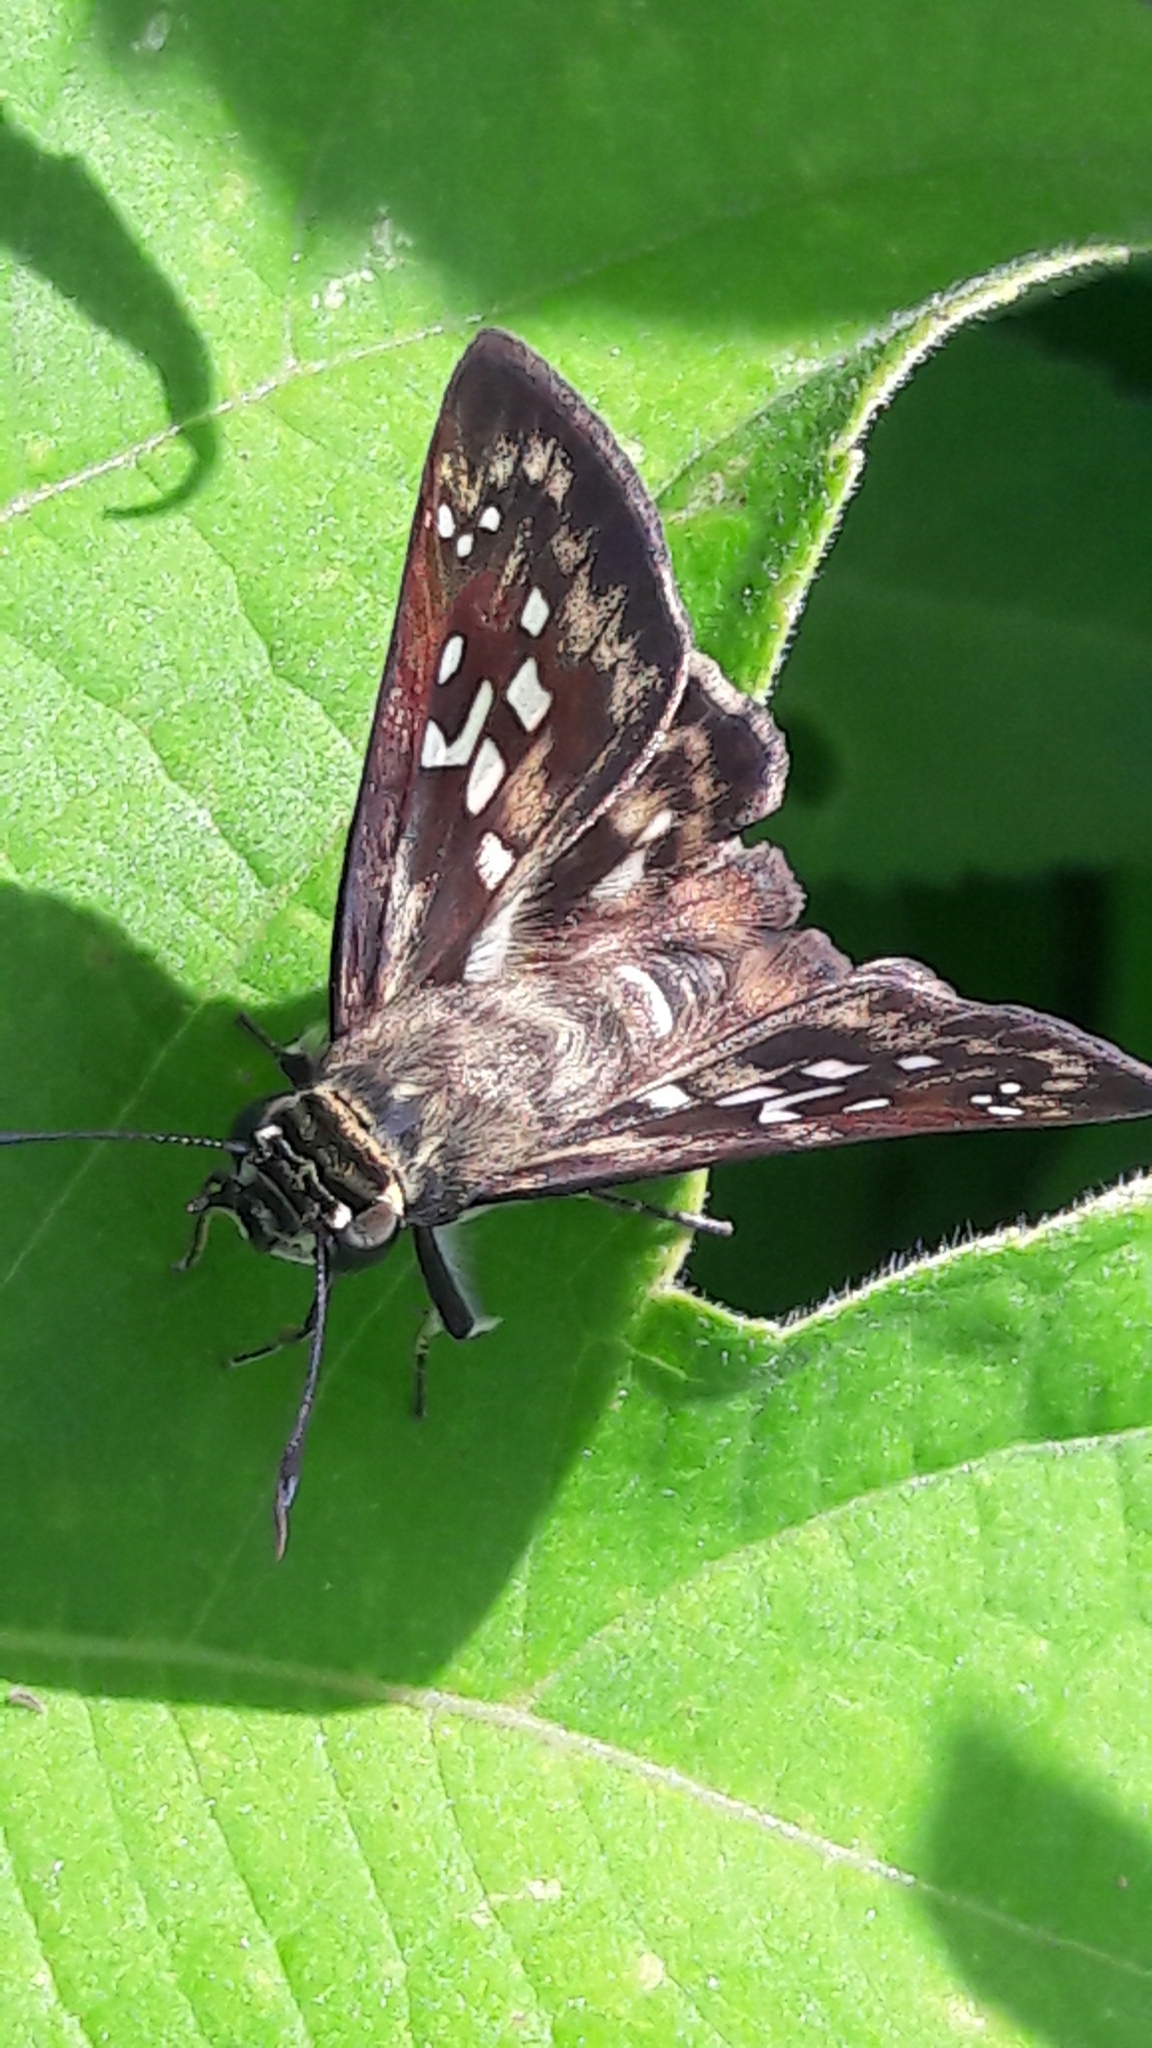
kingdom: Animalia
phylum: Arthropoda
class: Insecta
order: Lepidoptera
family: Hesperiidae
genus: Udranomia
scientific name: Udranomia kikkawai
